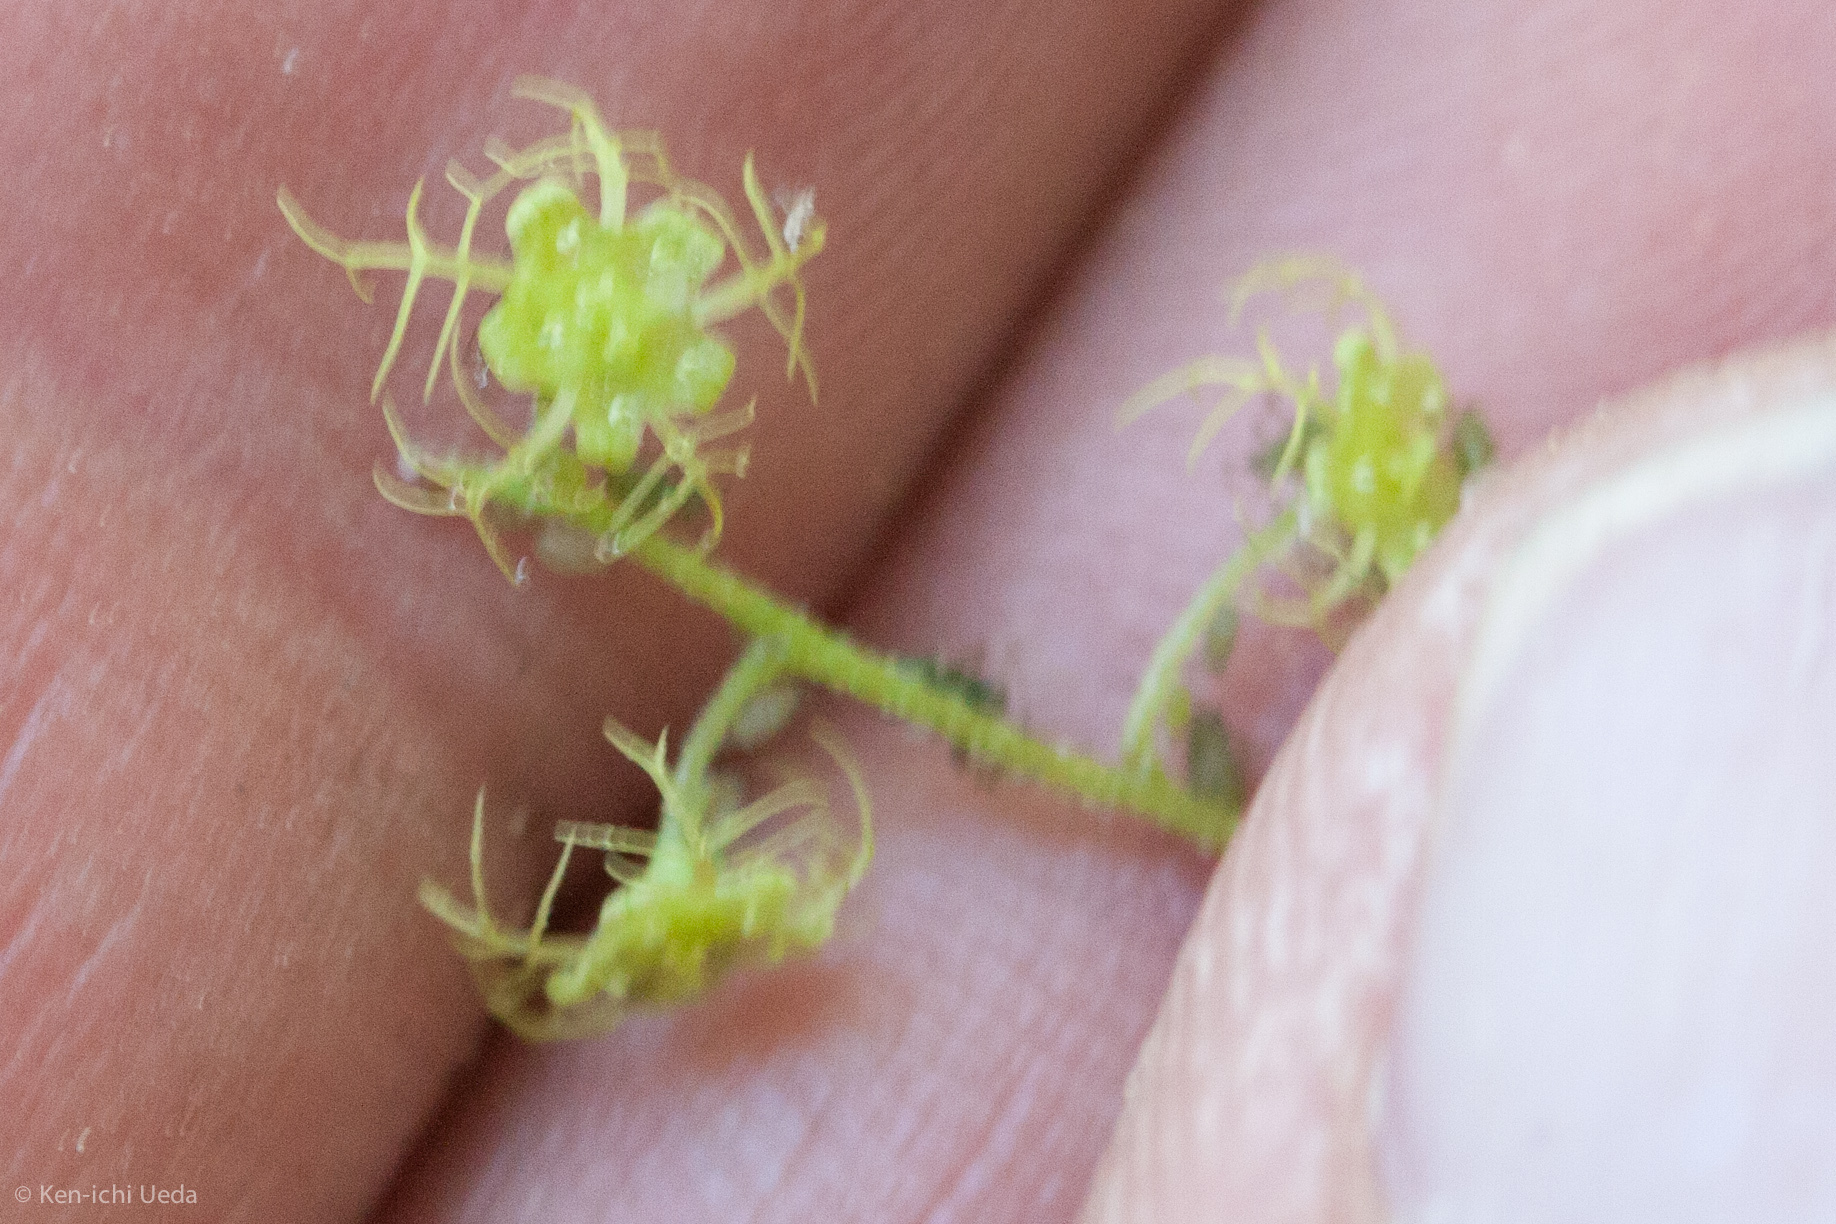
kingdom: Plantae
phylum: Tracheophyta
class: Magnoliopsida
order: Saxifragales
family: Saxifragaceae
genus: Brewerimitella
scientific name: Brewerimitella breweri
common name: Brewer's bishop's-cap
